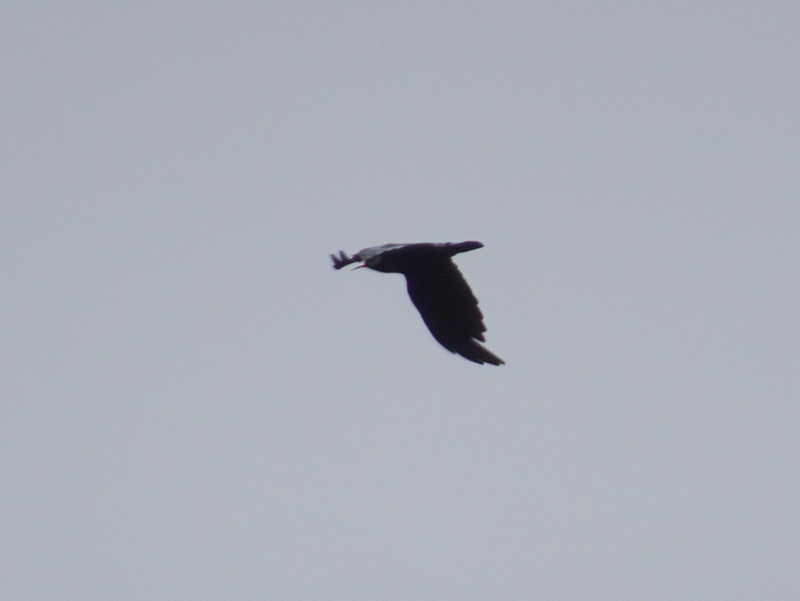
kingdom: Animalia
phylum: Chordata
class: Aves
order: Passeriformes
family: Corvidae
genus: Pyrrhocorax
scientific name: Pyrrhocorax pyrrhocorax
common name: Red-billed chough
